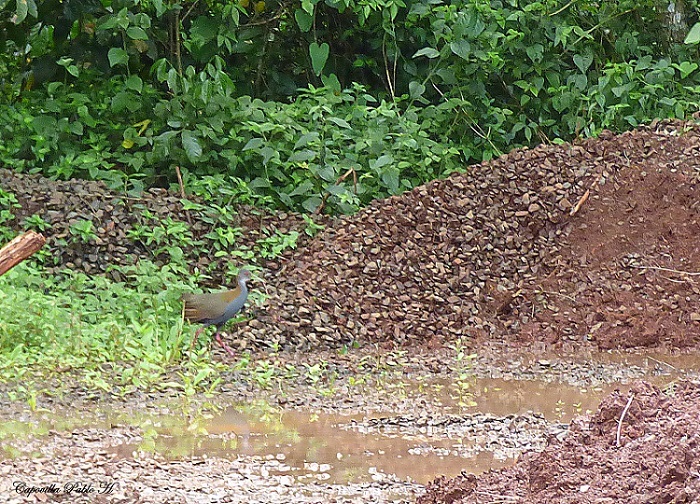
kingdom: Animalia
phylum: Chordata
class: Aves
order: Gruiformes
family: Rallidae
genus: Aramides
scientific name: Aramides saracura
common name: Slaty-breasted wood rail
